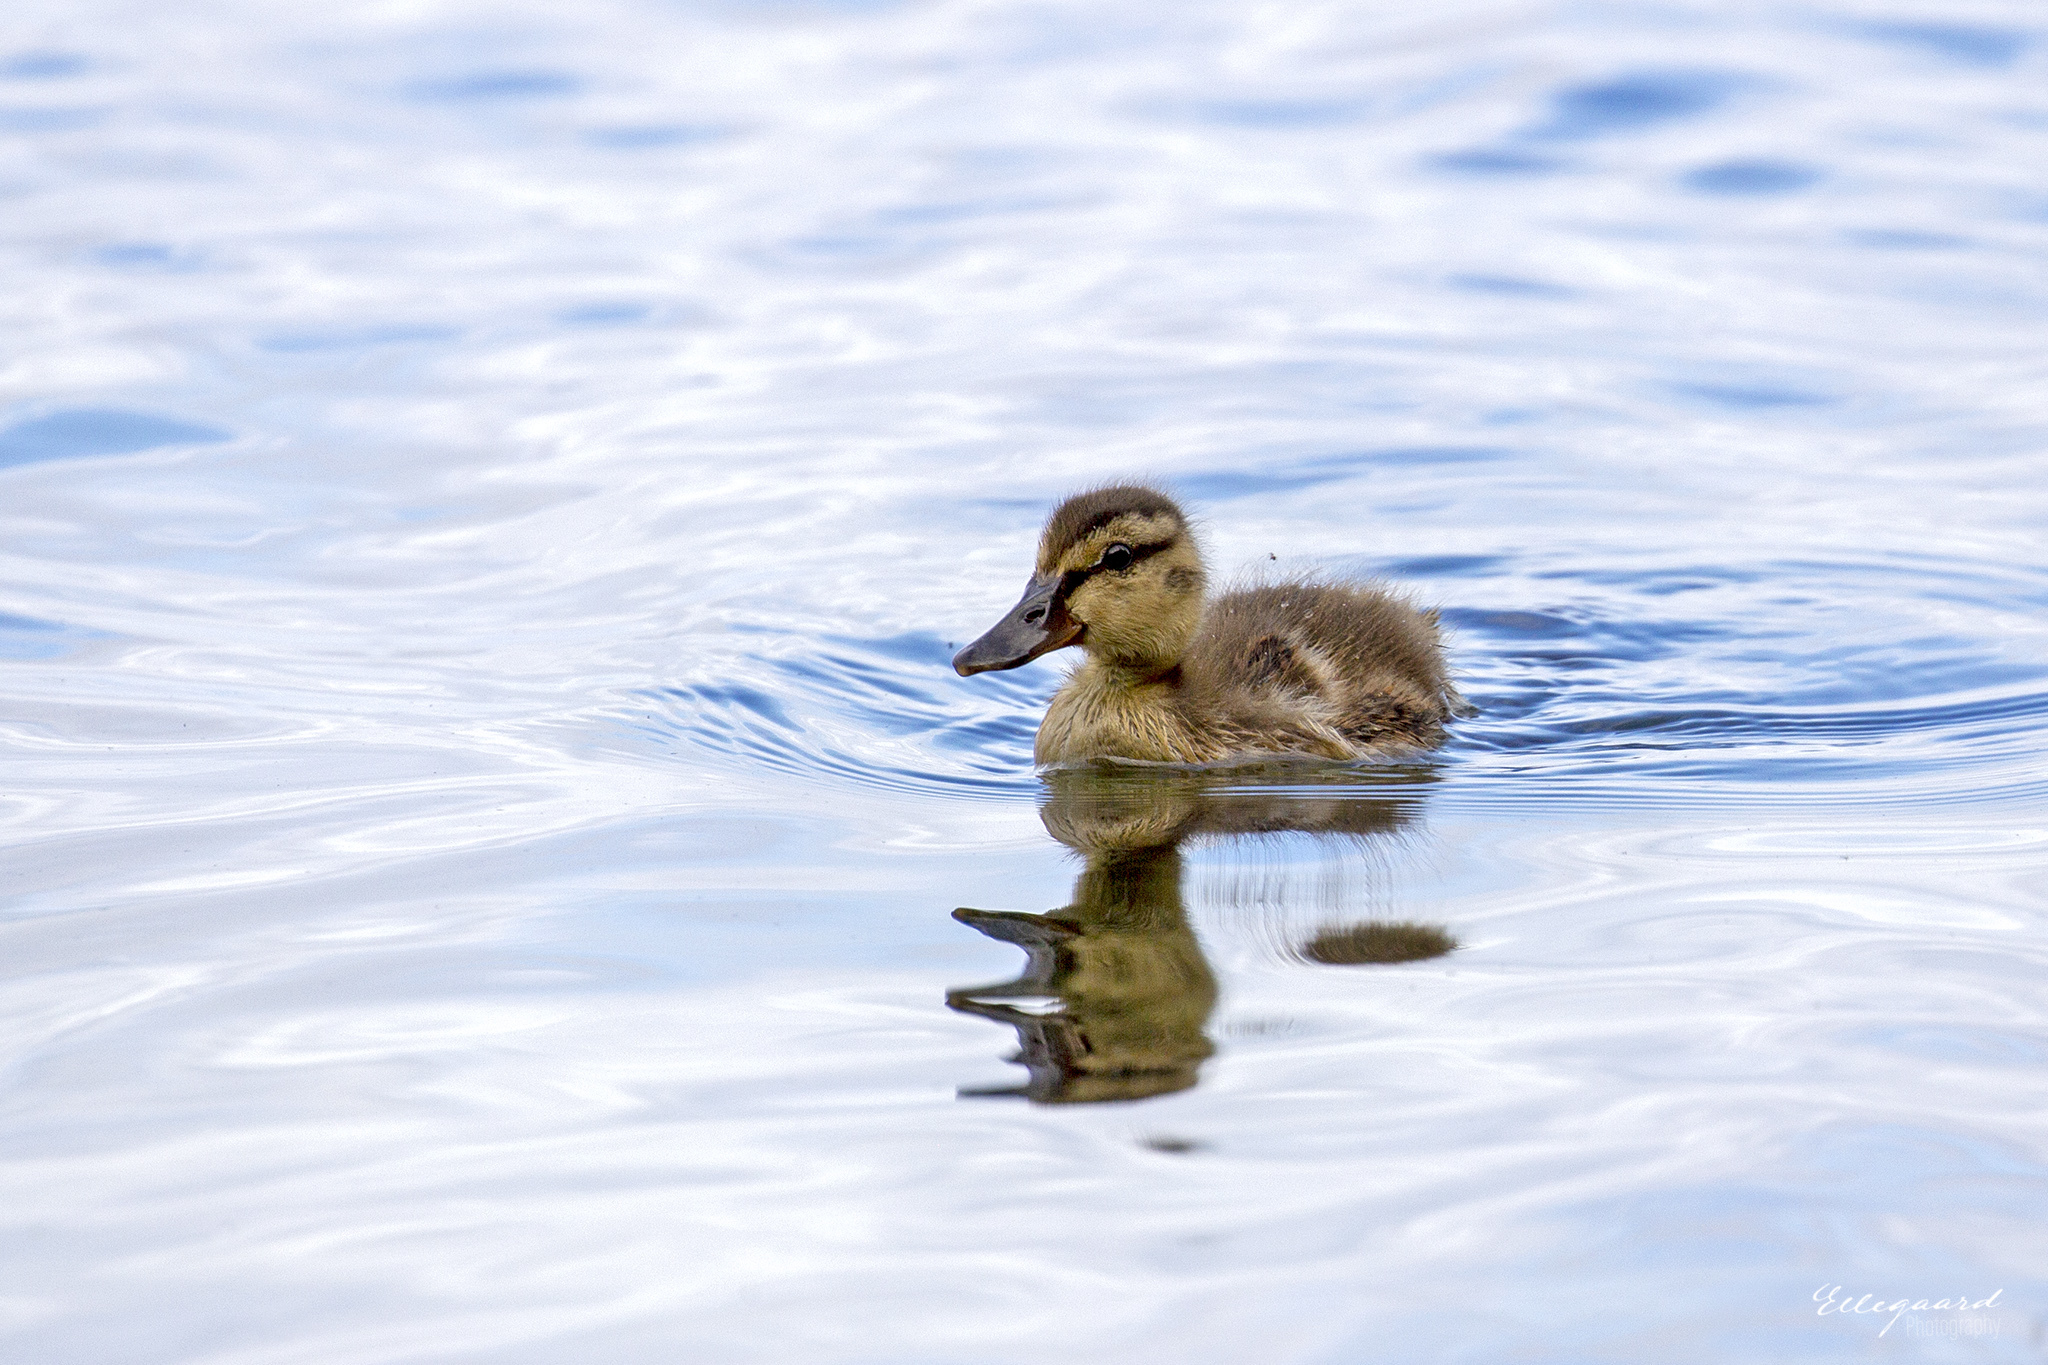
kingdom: Animalia
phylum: Chordata
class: Aves
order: Anseriformes
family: Anatidae
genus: Anas
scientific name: Anas platyrhynchos
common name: Mallard
